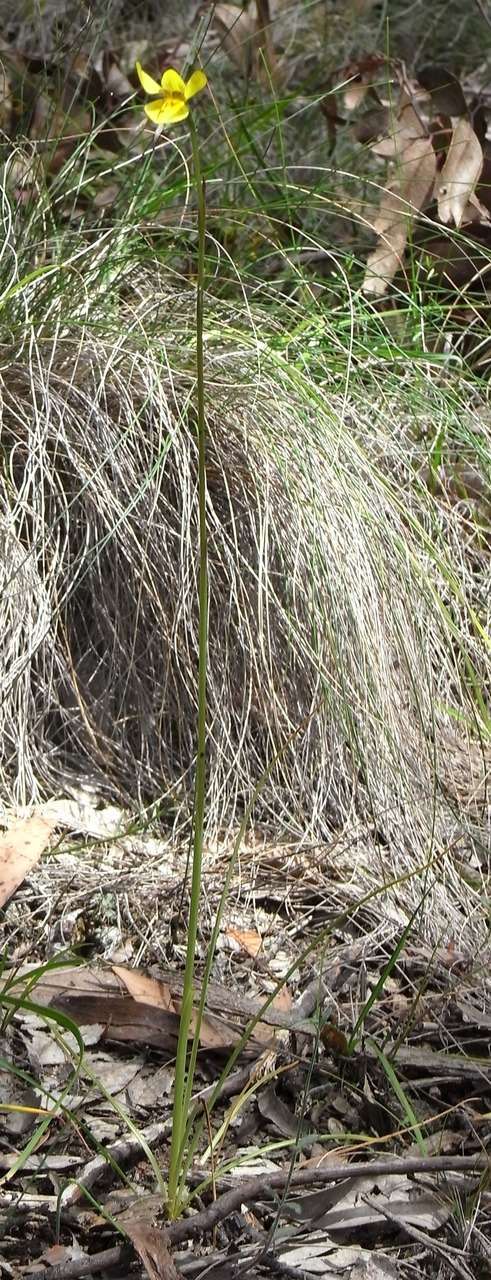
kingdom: Plantae
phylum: Tracheophyta
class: Liliopsida
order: Asparagales
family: Orchidaceae
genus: Diuris
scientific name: Diuris chryseopsis
